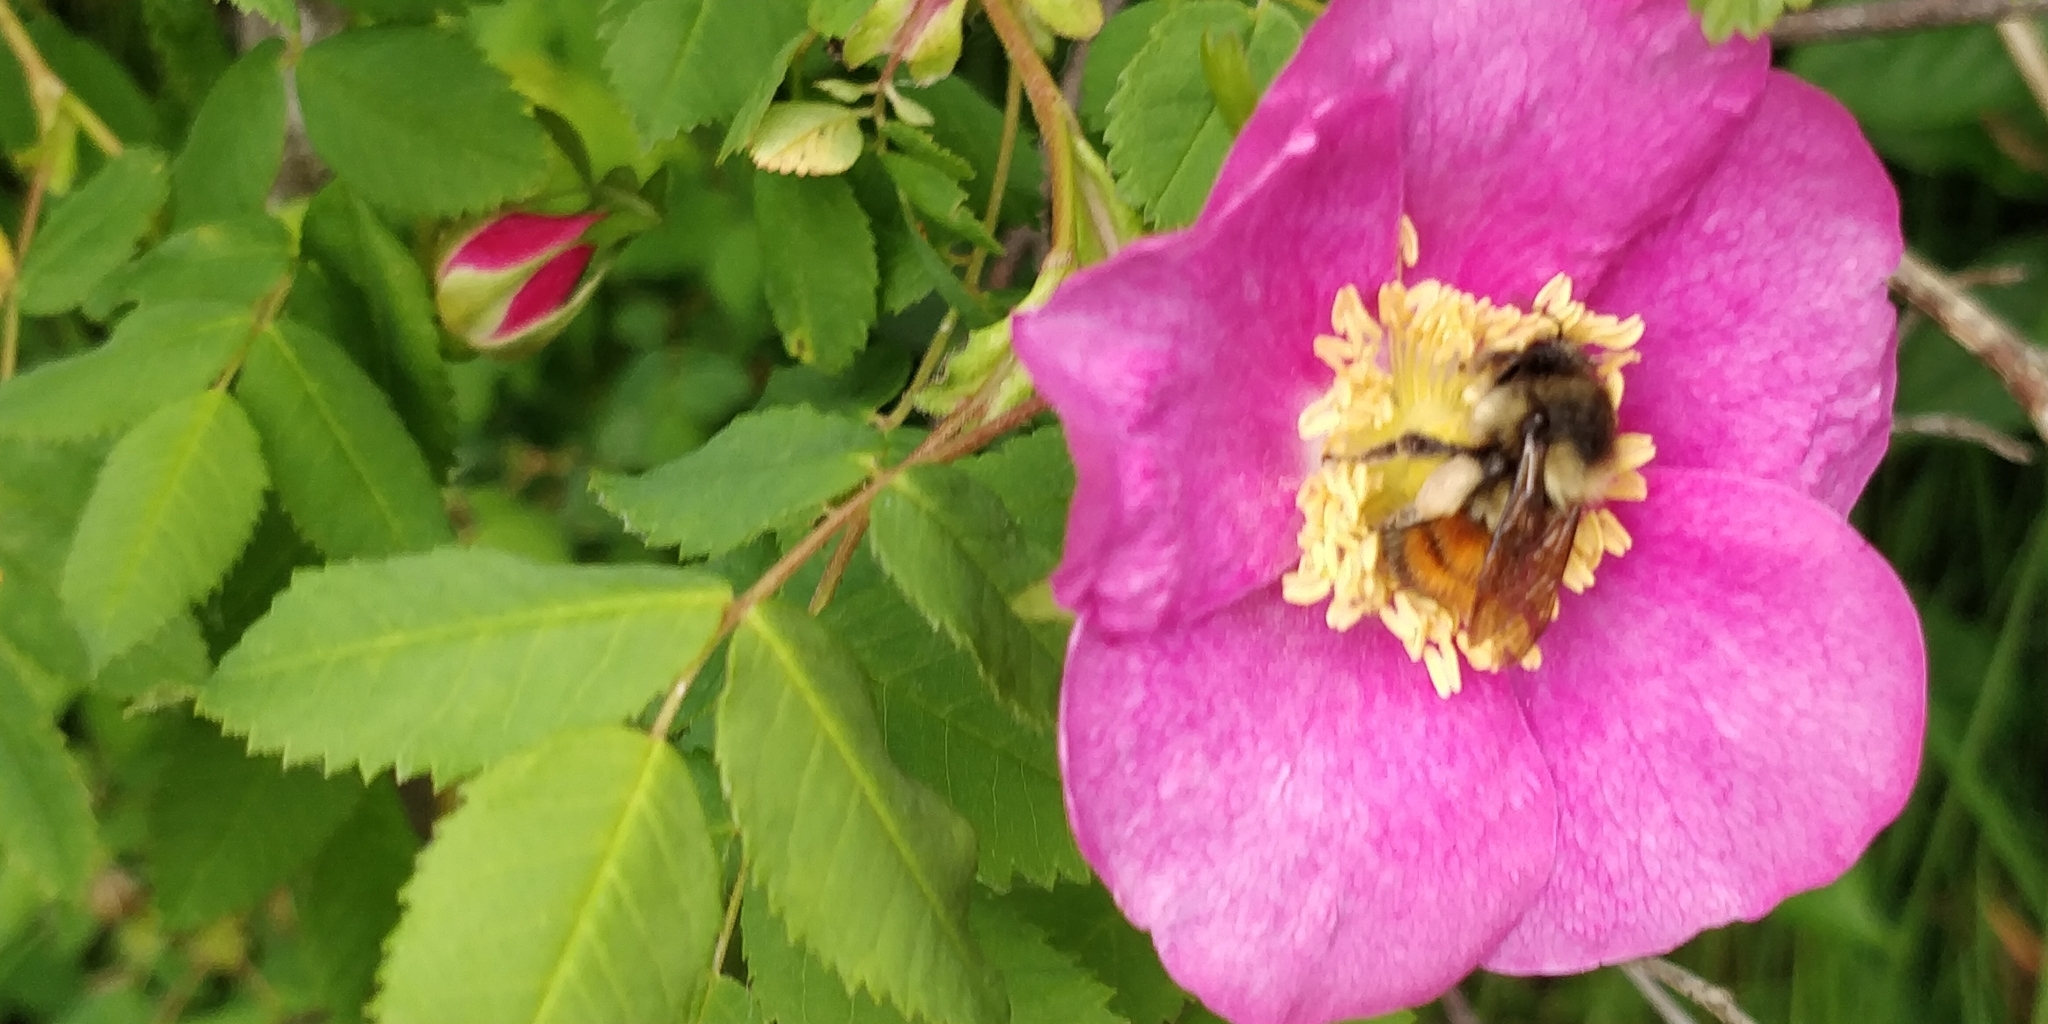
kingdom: Animalia
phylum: Arthropoda
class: Insecta
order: Hymenoptera
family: Apidae
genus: Bombus
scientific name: Bombus melanopygus
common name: Black tail bumble bee
